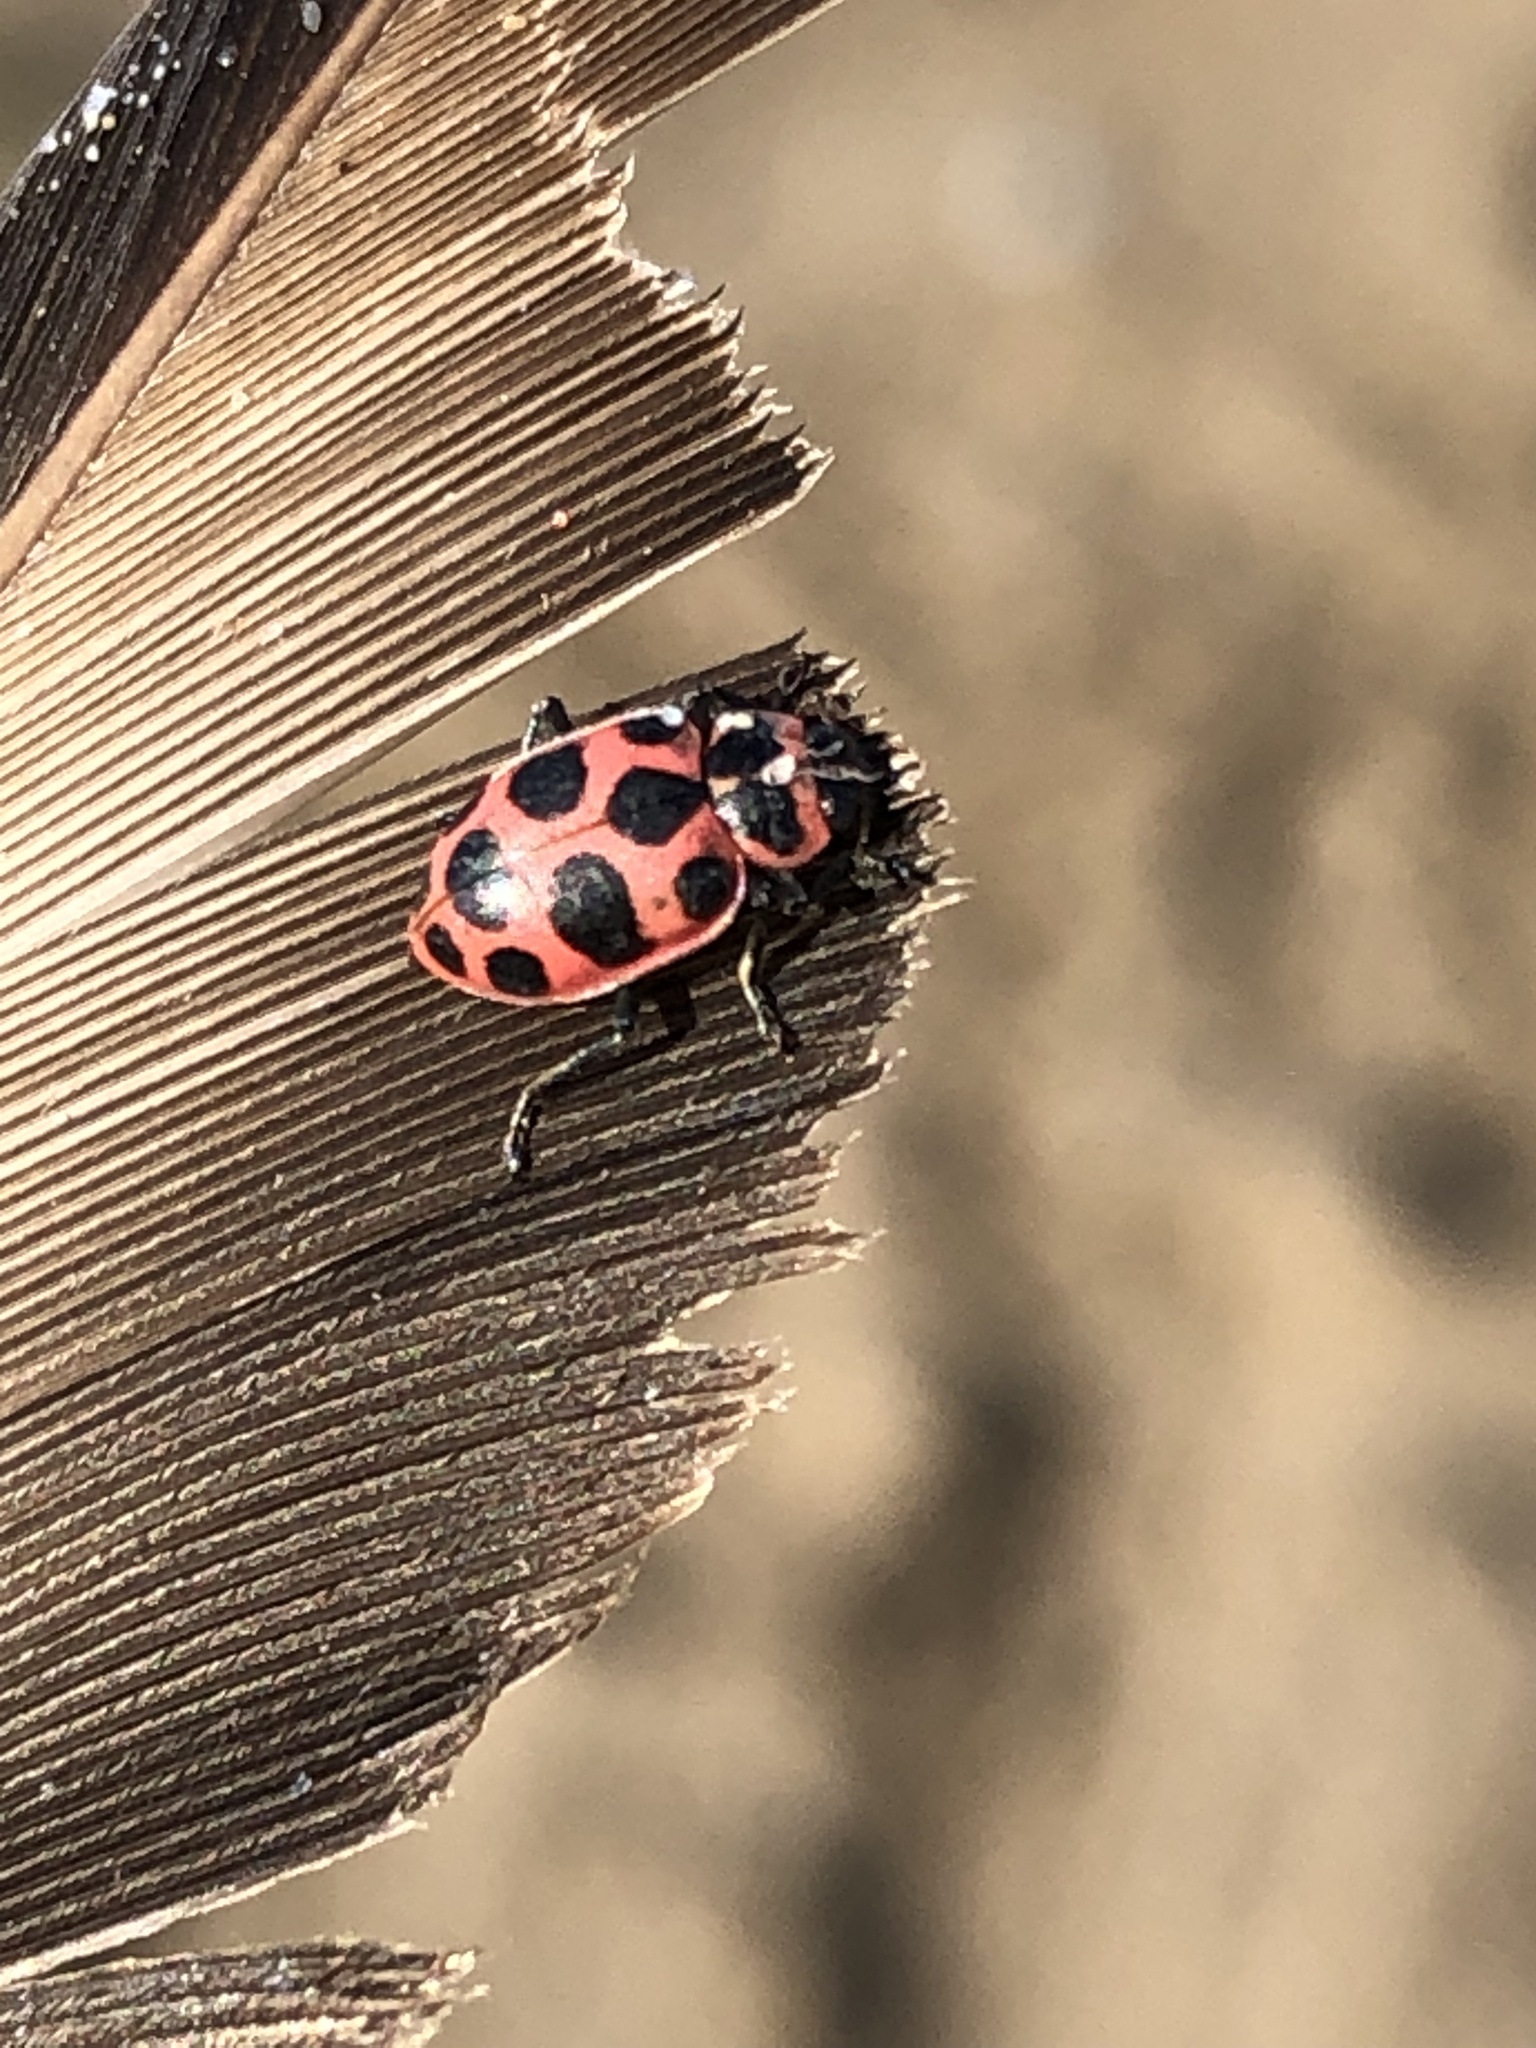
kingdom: Animalia
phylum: Arthropoda
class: Insecta
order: Coleoptera
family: Coccinellidae
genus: Coleomegilla
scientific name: Coleomegilla maculata
